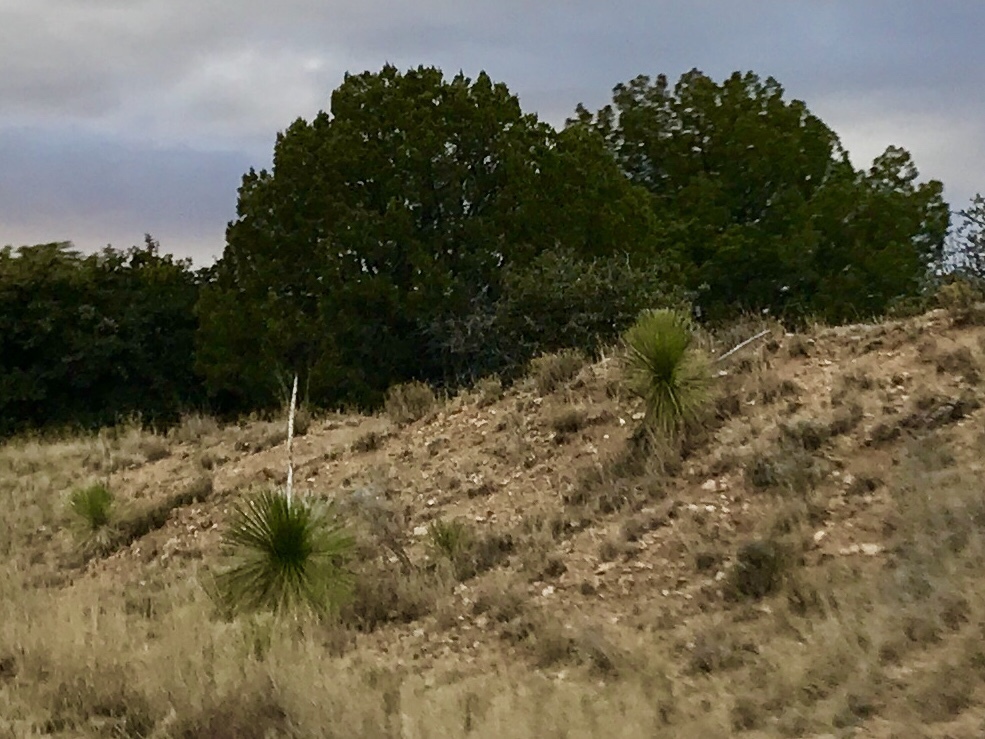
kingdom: Plantae
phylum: Tracheophyta
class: Liliopsida
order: Asparagales
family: Asparagaceae
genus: Yucca
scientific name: Yucca elata
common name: Palmella
